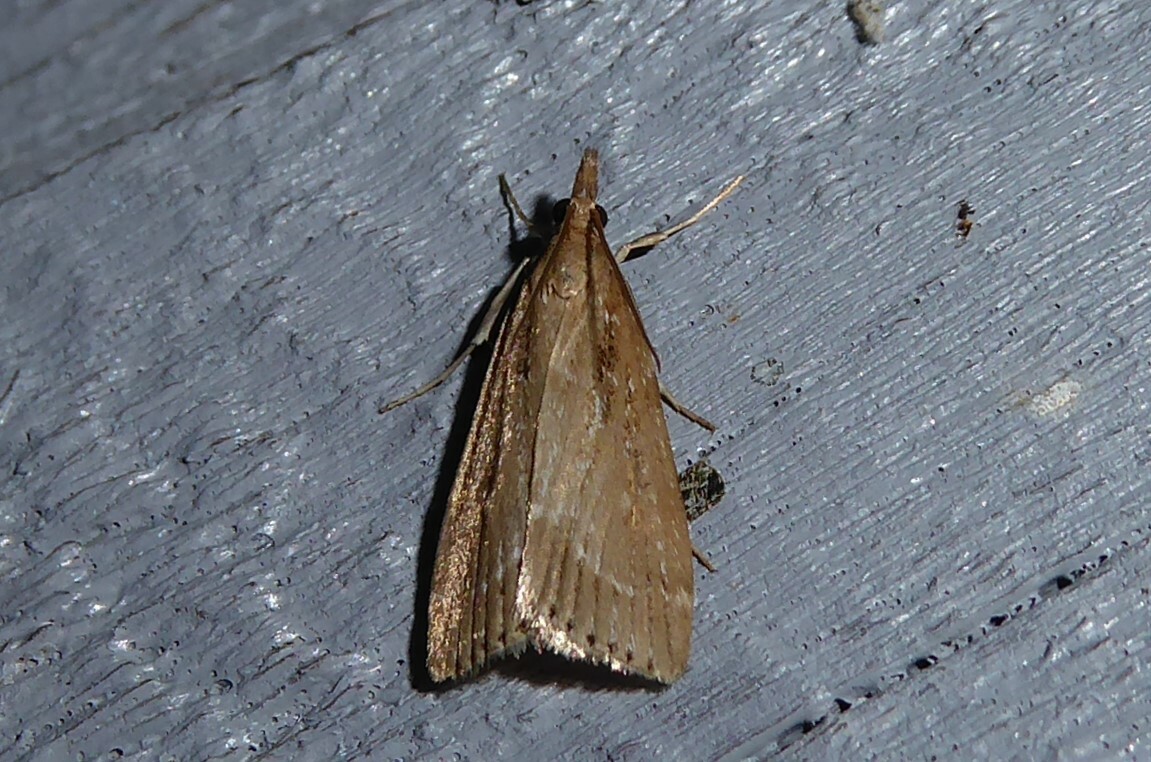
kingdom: Animalia
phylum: Arthropoda
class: Insecta
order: Lepidoptera
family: Crambidae
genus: Eudonia
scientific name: Eudonia octophora
